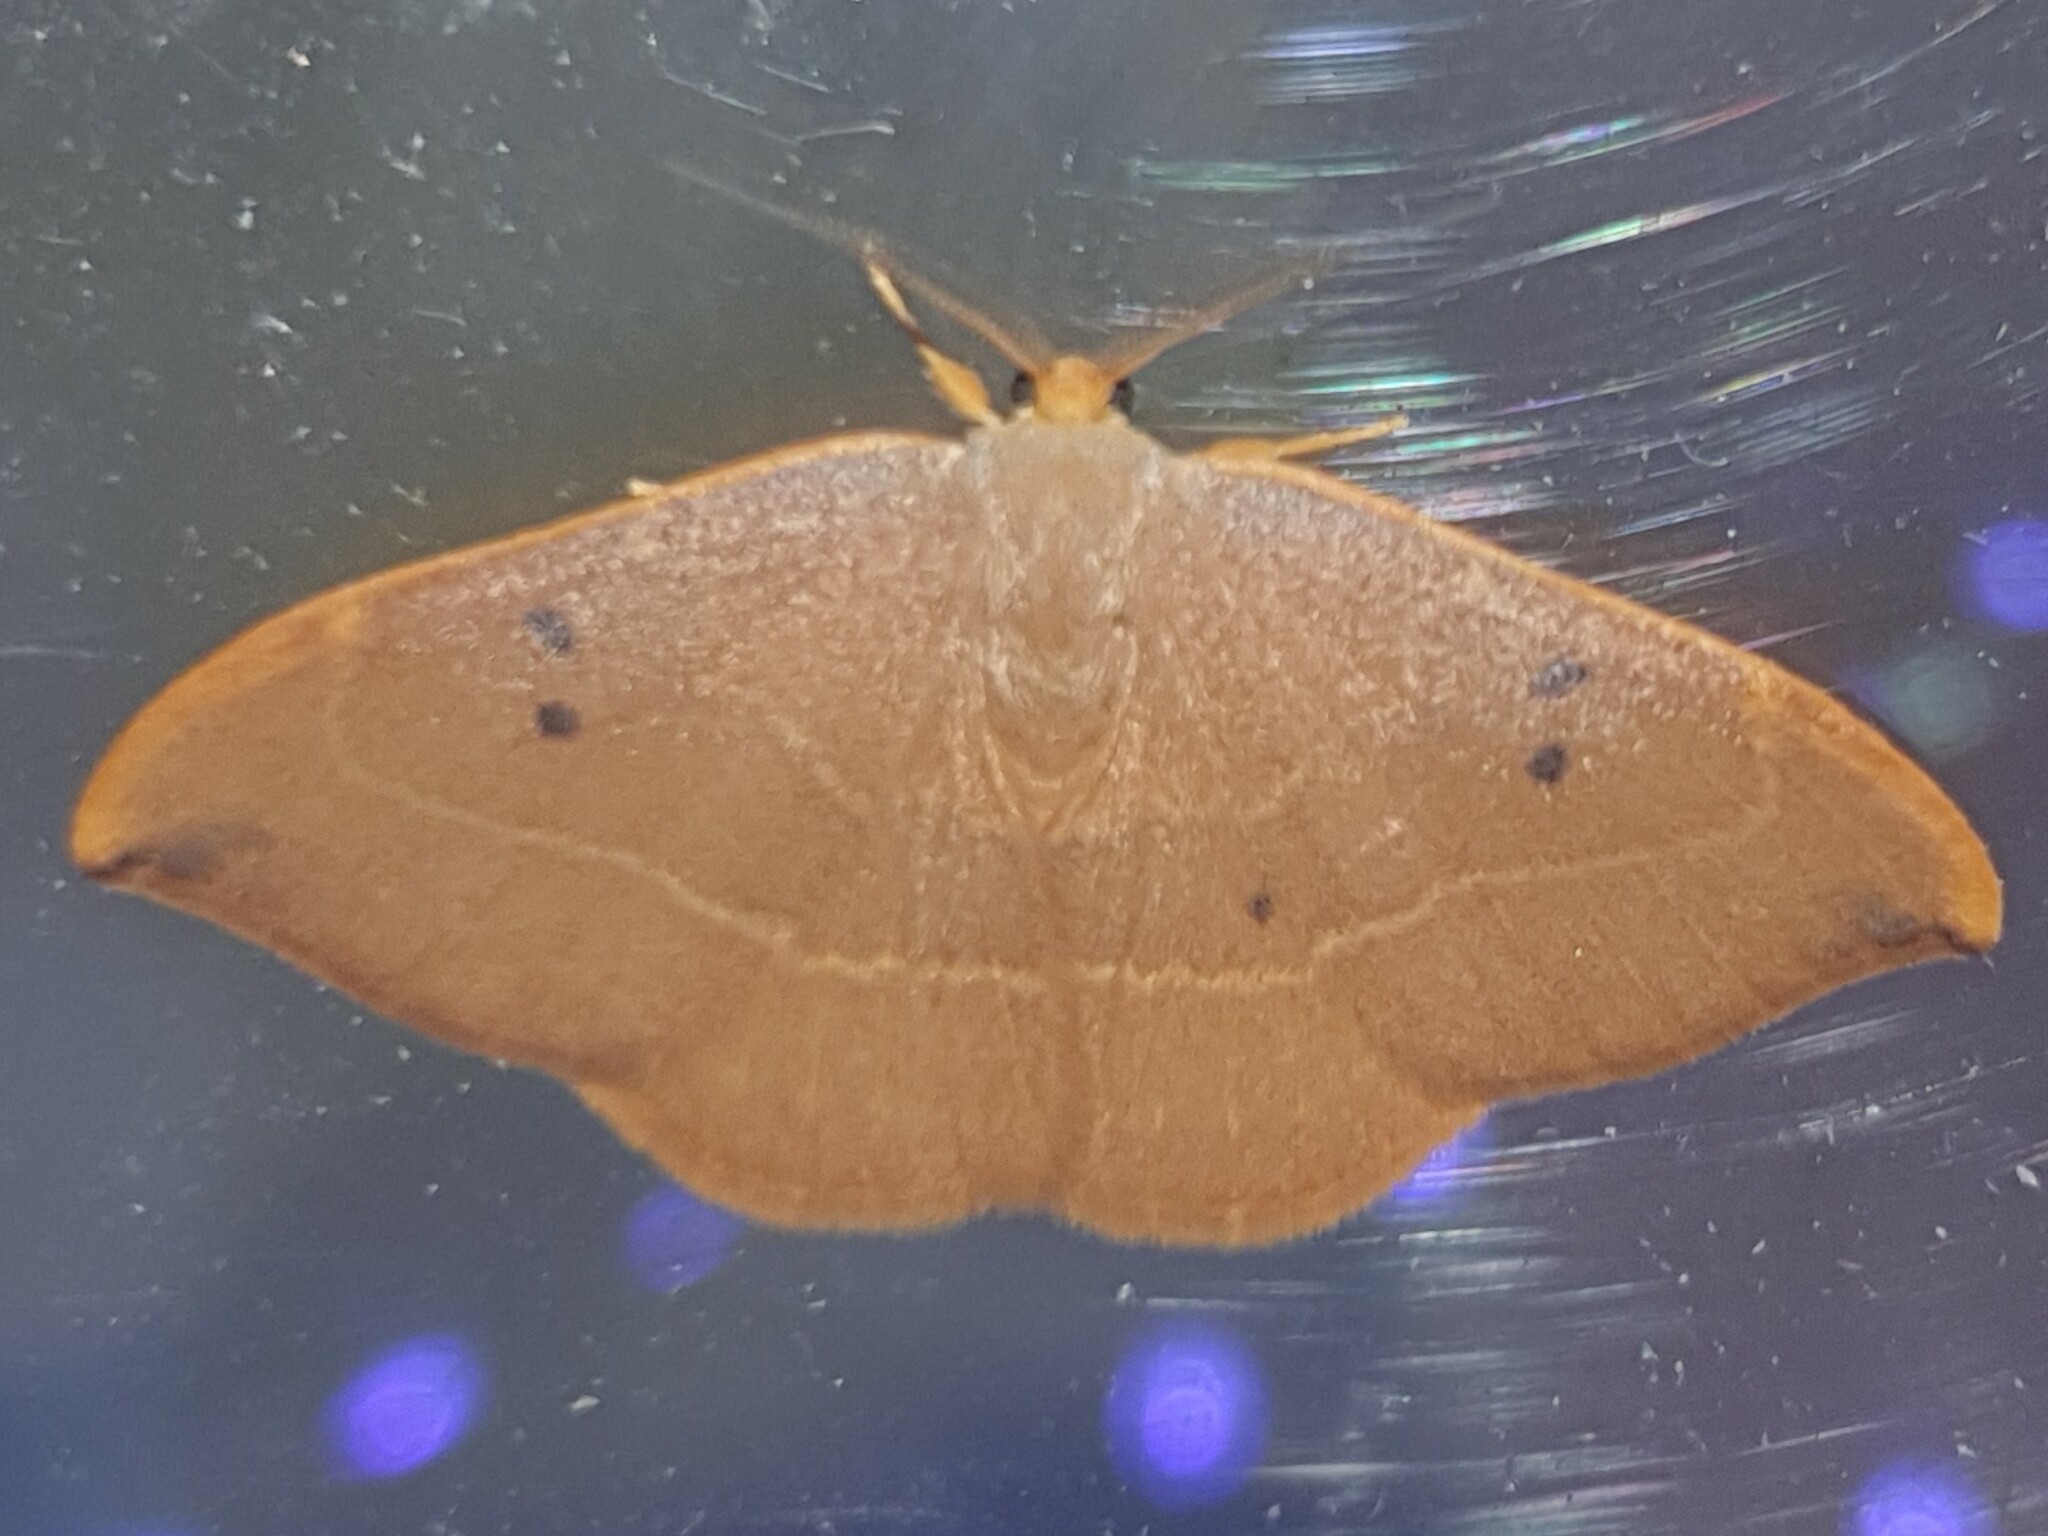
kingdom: Animalia
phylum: Arthropoda
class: Insecta
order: Lepidoptera
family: Drepanidae
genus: Watsonalla
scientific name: Watsonalla binaria
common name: Oak hook-tip
